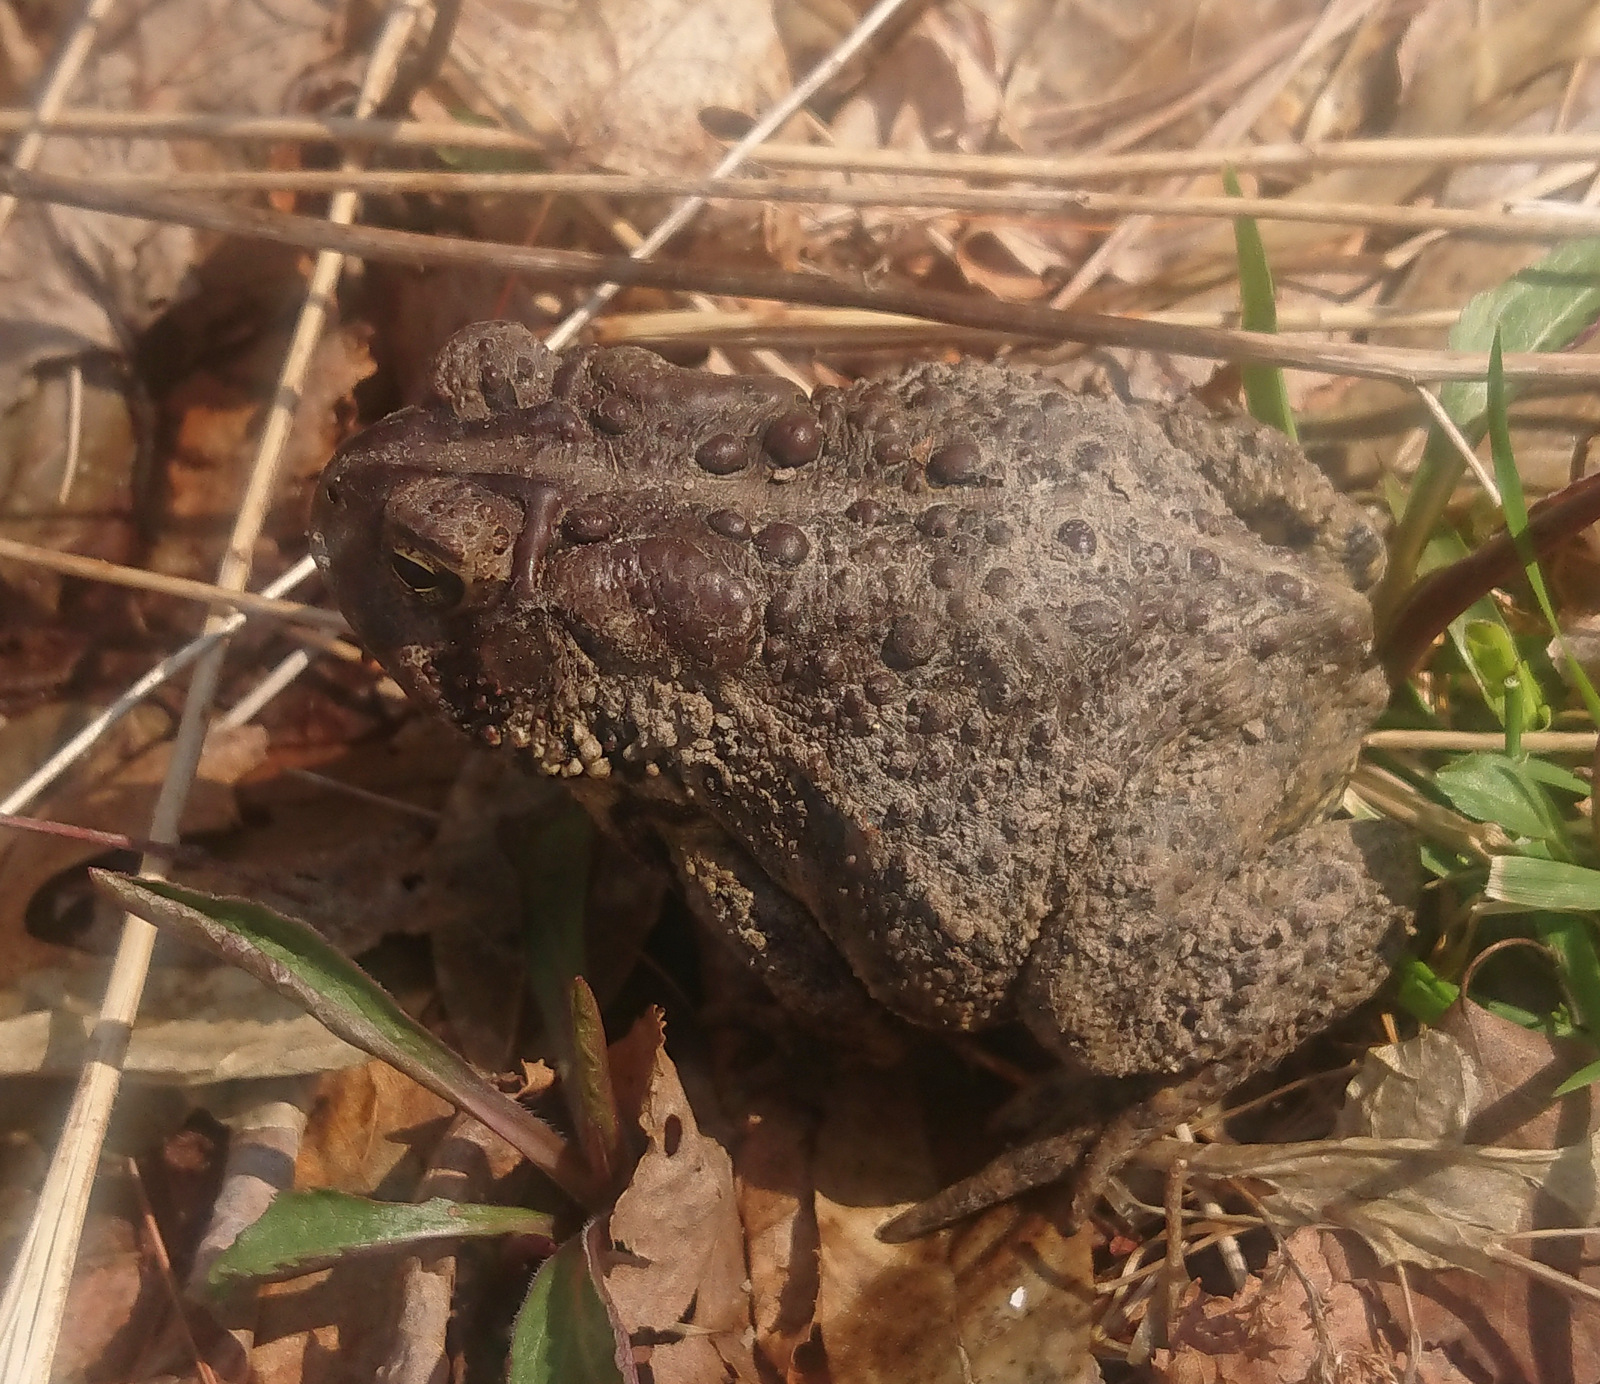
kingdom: Animalia
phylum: Chordata
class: Amphibia
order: Anura
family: Bufonidae
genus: Anaxyrus
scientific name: Anaxyrus americanus
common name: American toad
